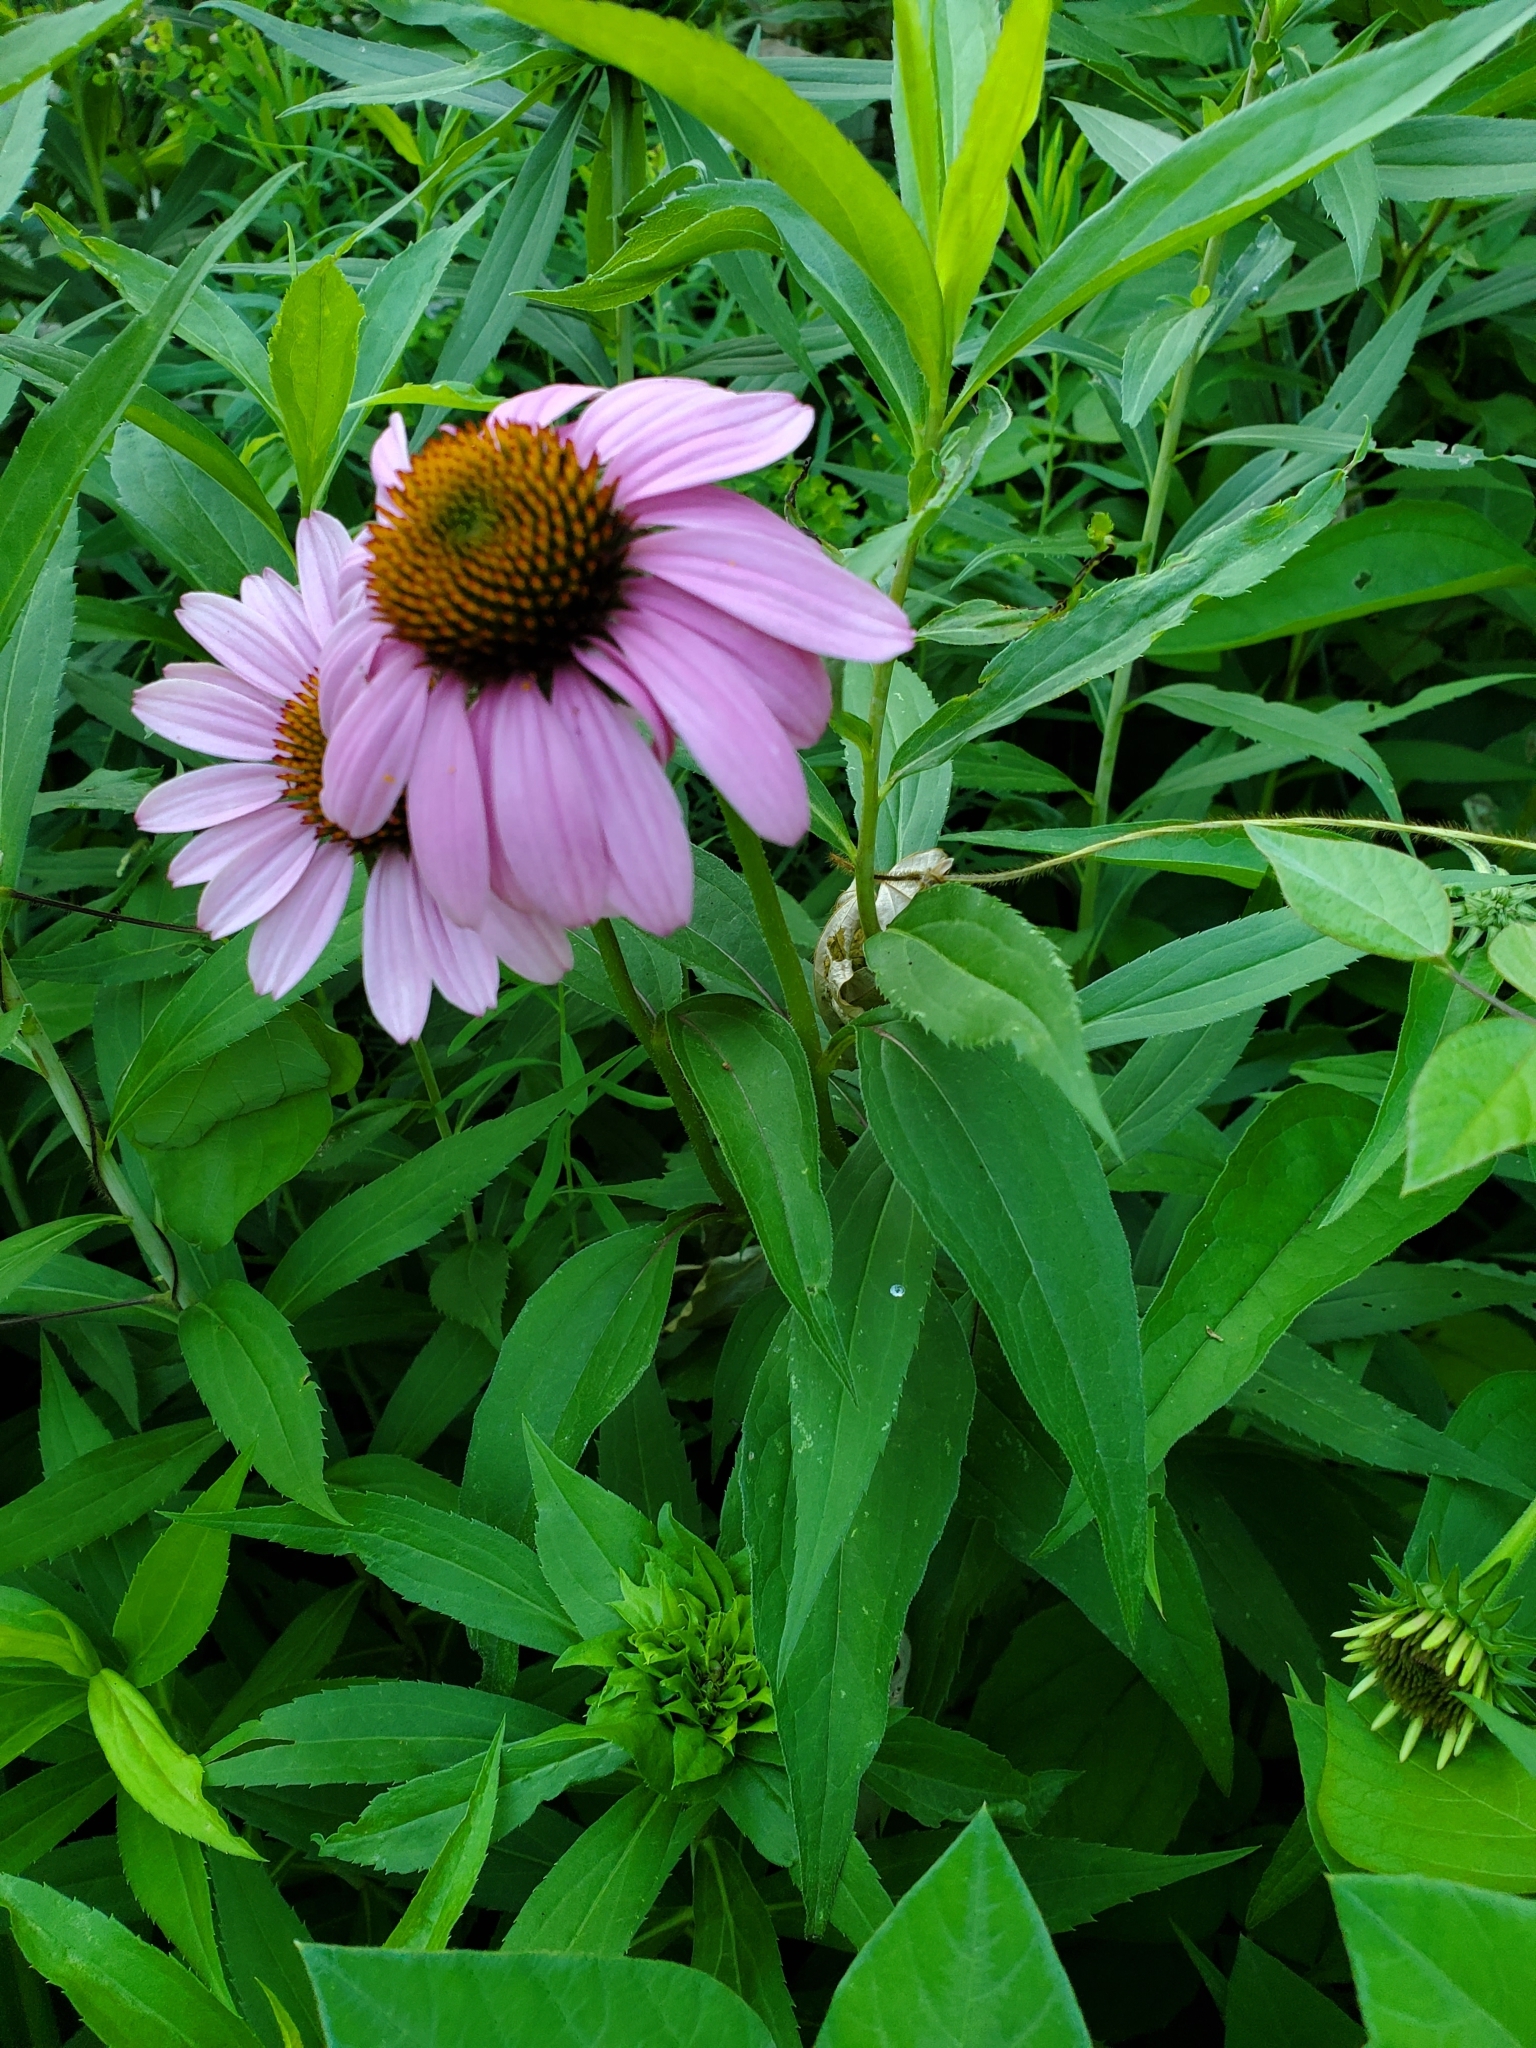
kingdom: Plantae
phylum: Tracheophyta
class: Magnoliopsida
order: Asterales
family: Asteraceae
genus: Echinacea
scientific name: Echinacea purpurea
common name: Broad-leaved purple coneflower
